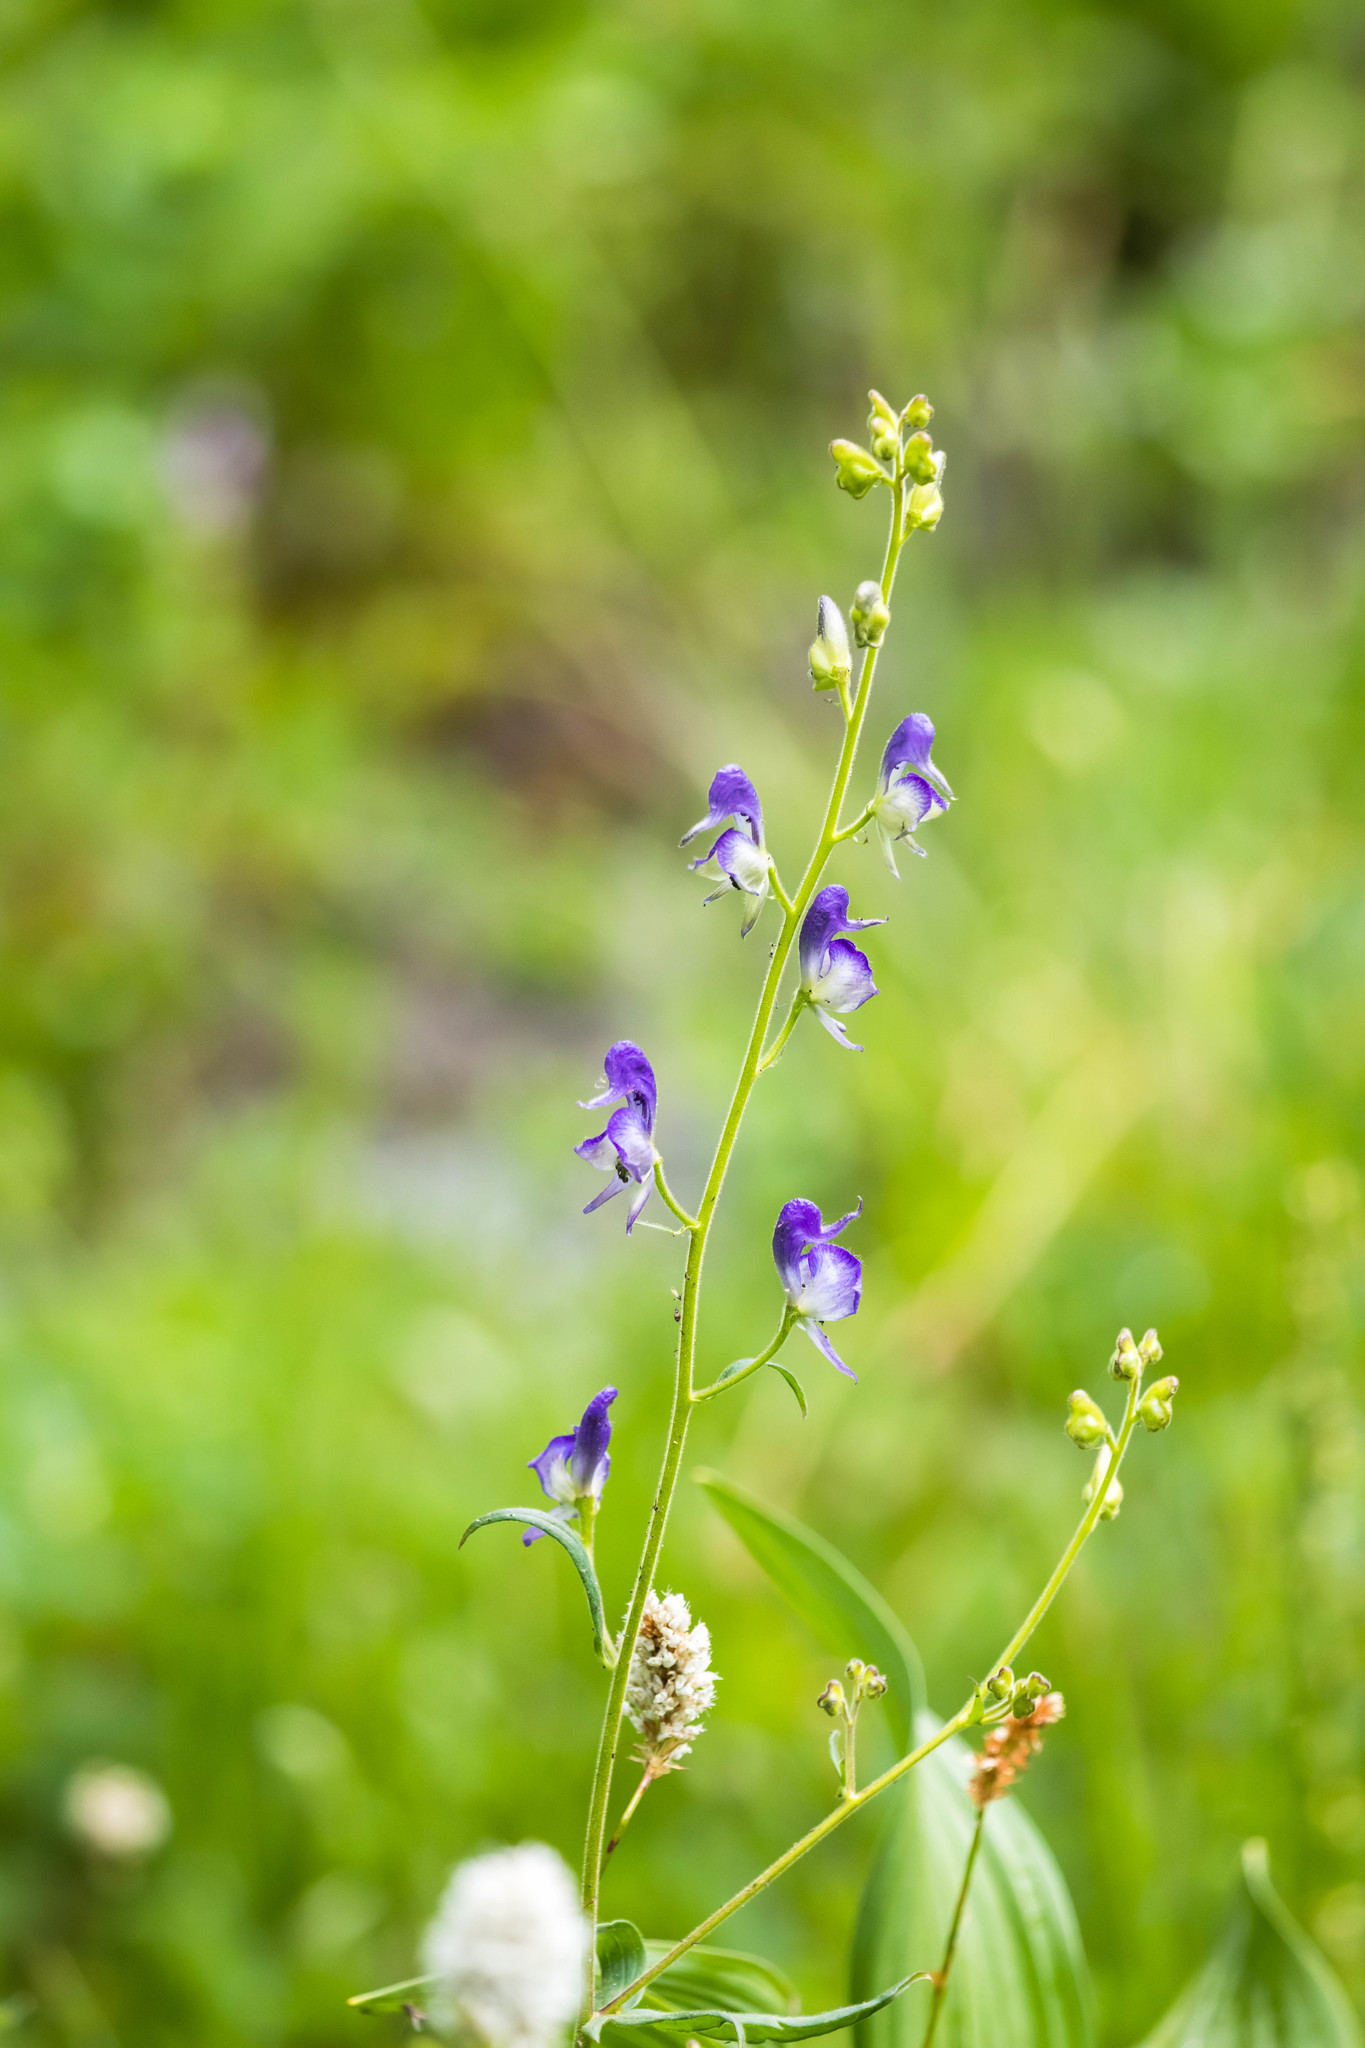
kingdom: Plantae
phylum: Tracheophyta
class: Magnoliopsida
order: Ranunculales
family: Ranunculaceae
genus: Aconitum
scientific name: Aconitum columbianum
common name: Columbia aconite
